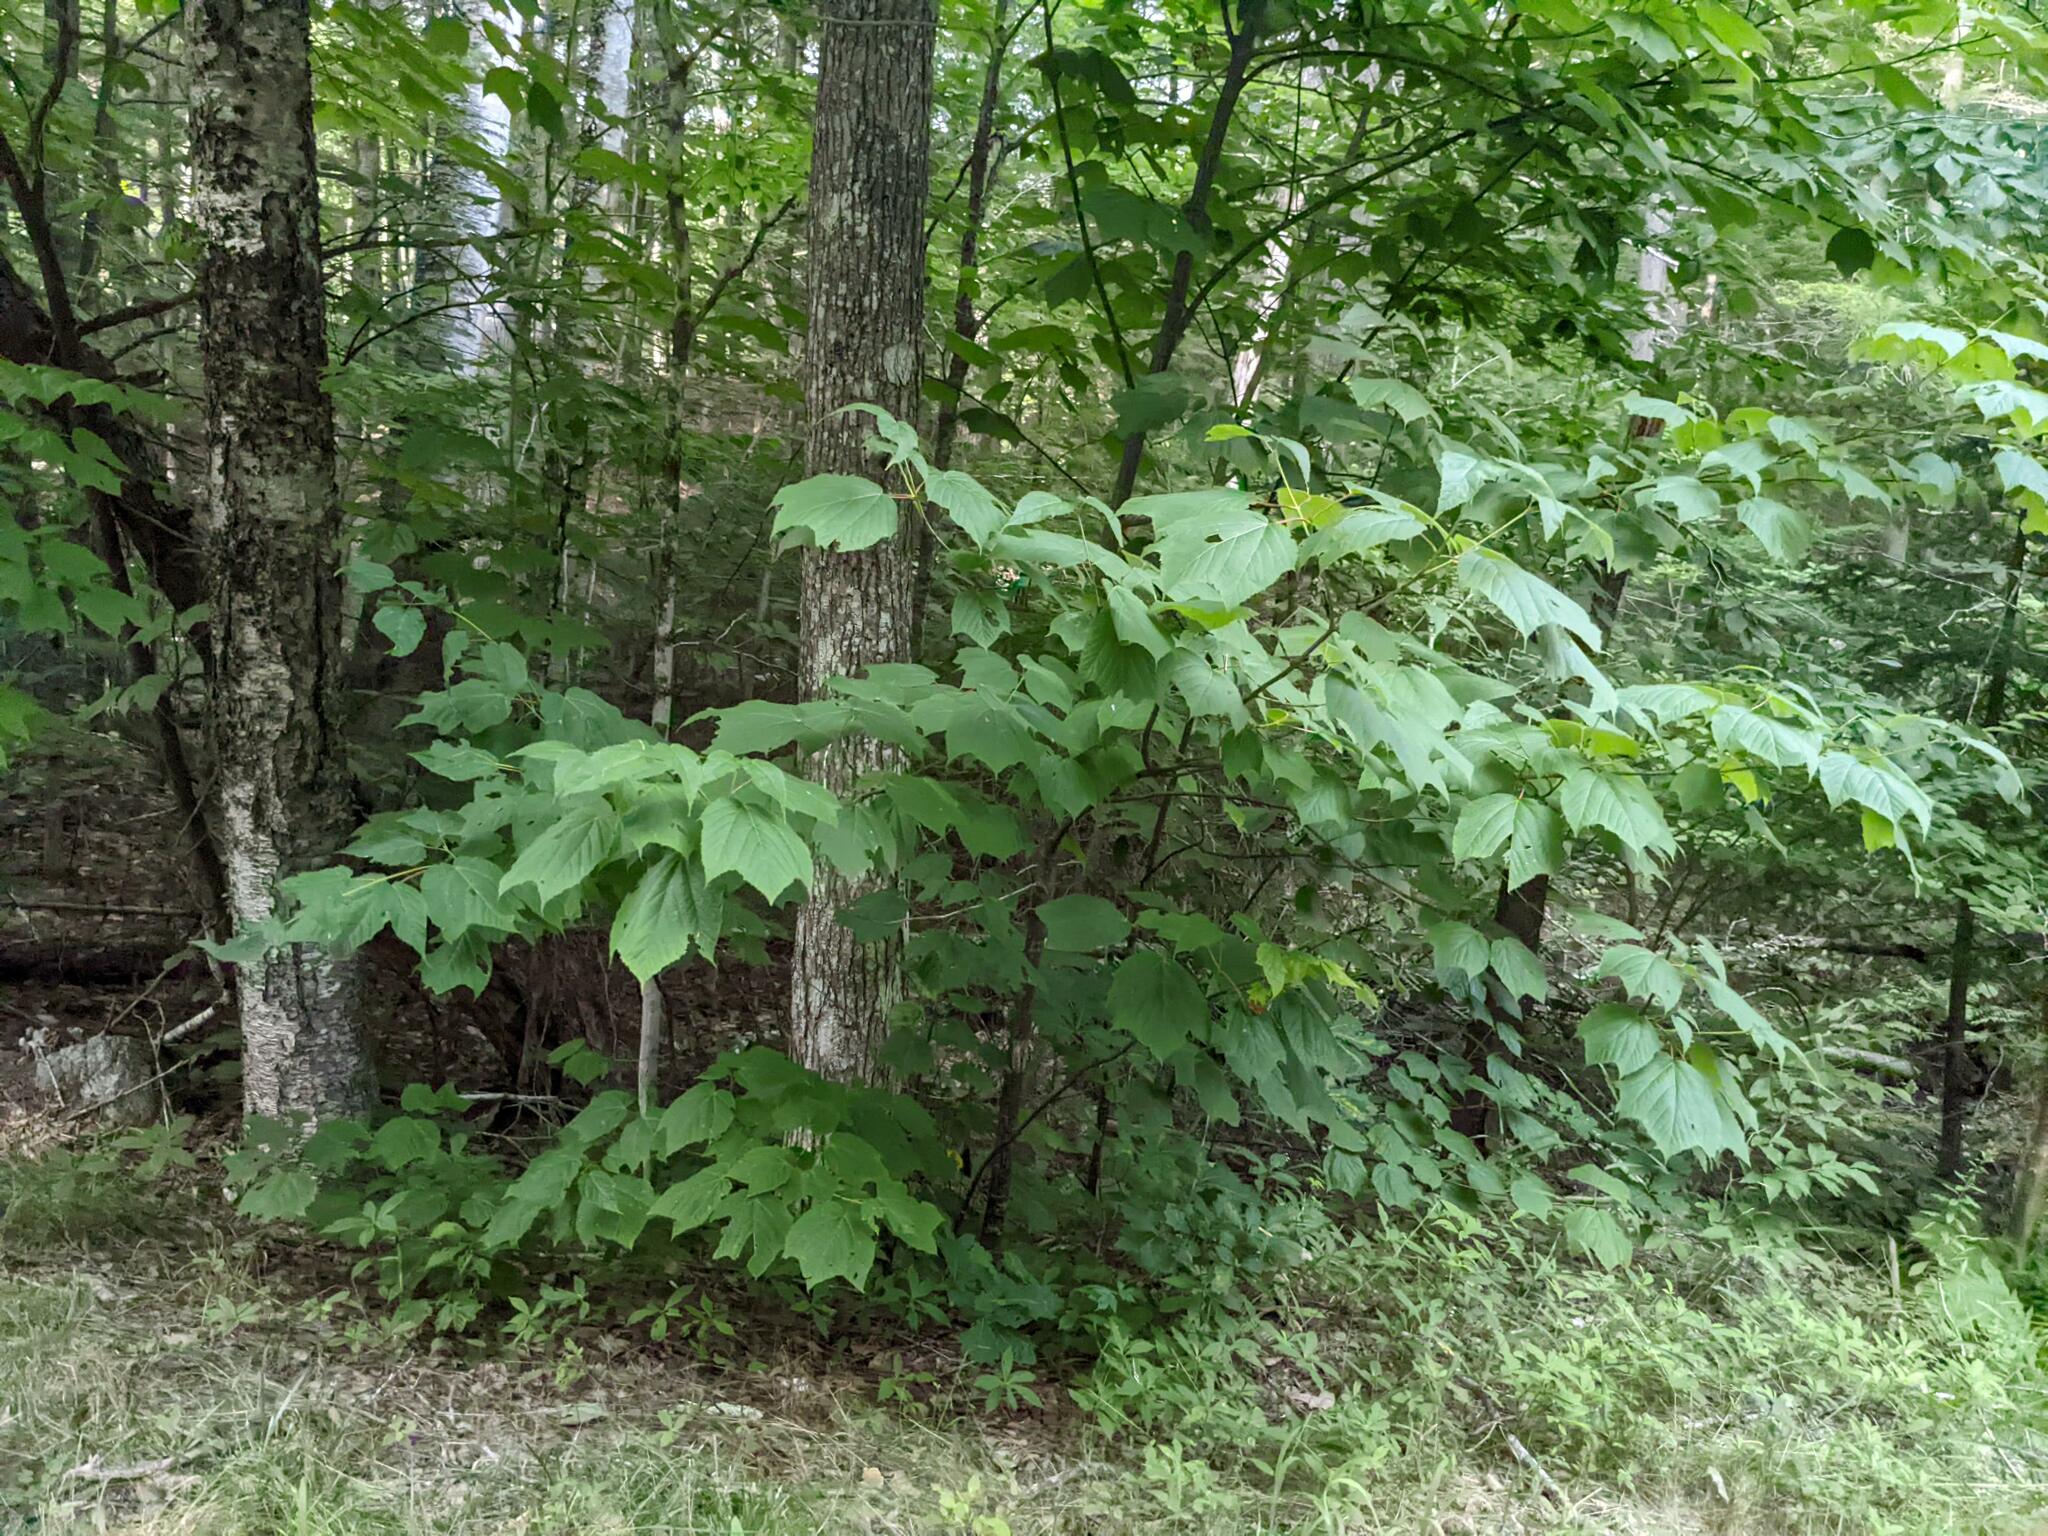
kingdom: Plantae
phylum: Tracheophyta
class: Magnoliopsida
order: Sapindales
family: Sapindaceae
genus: Acer
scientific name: Acer pensylvanicum
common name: Moosewood
